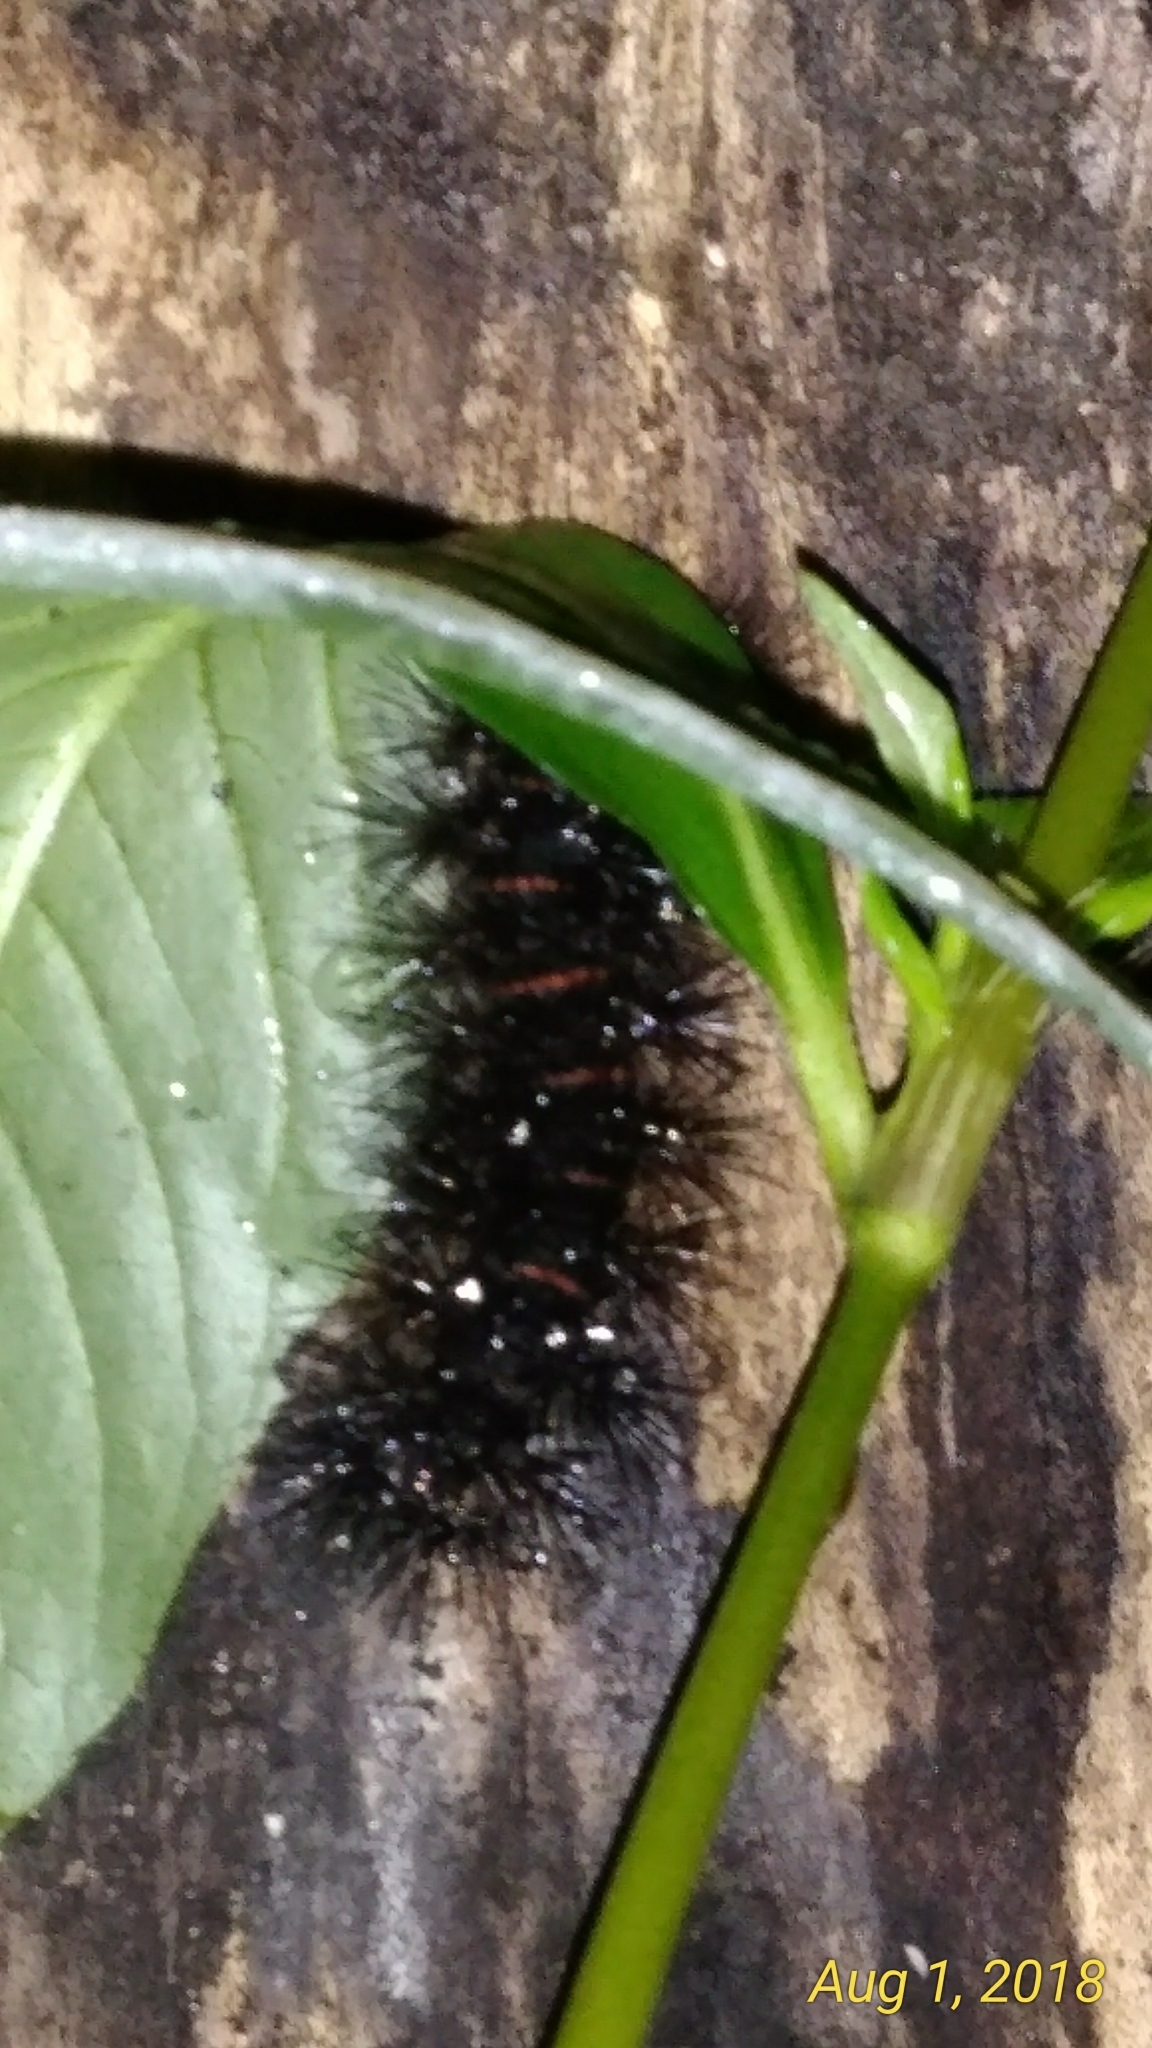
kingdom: Animalia
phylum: Arthropoda
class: Insecta
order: Lepidoptera
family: Erebidae
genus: Hypercompe
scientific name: Hypercompe scribonia
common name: Giant leopard moth
